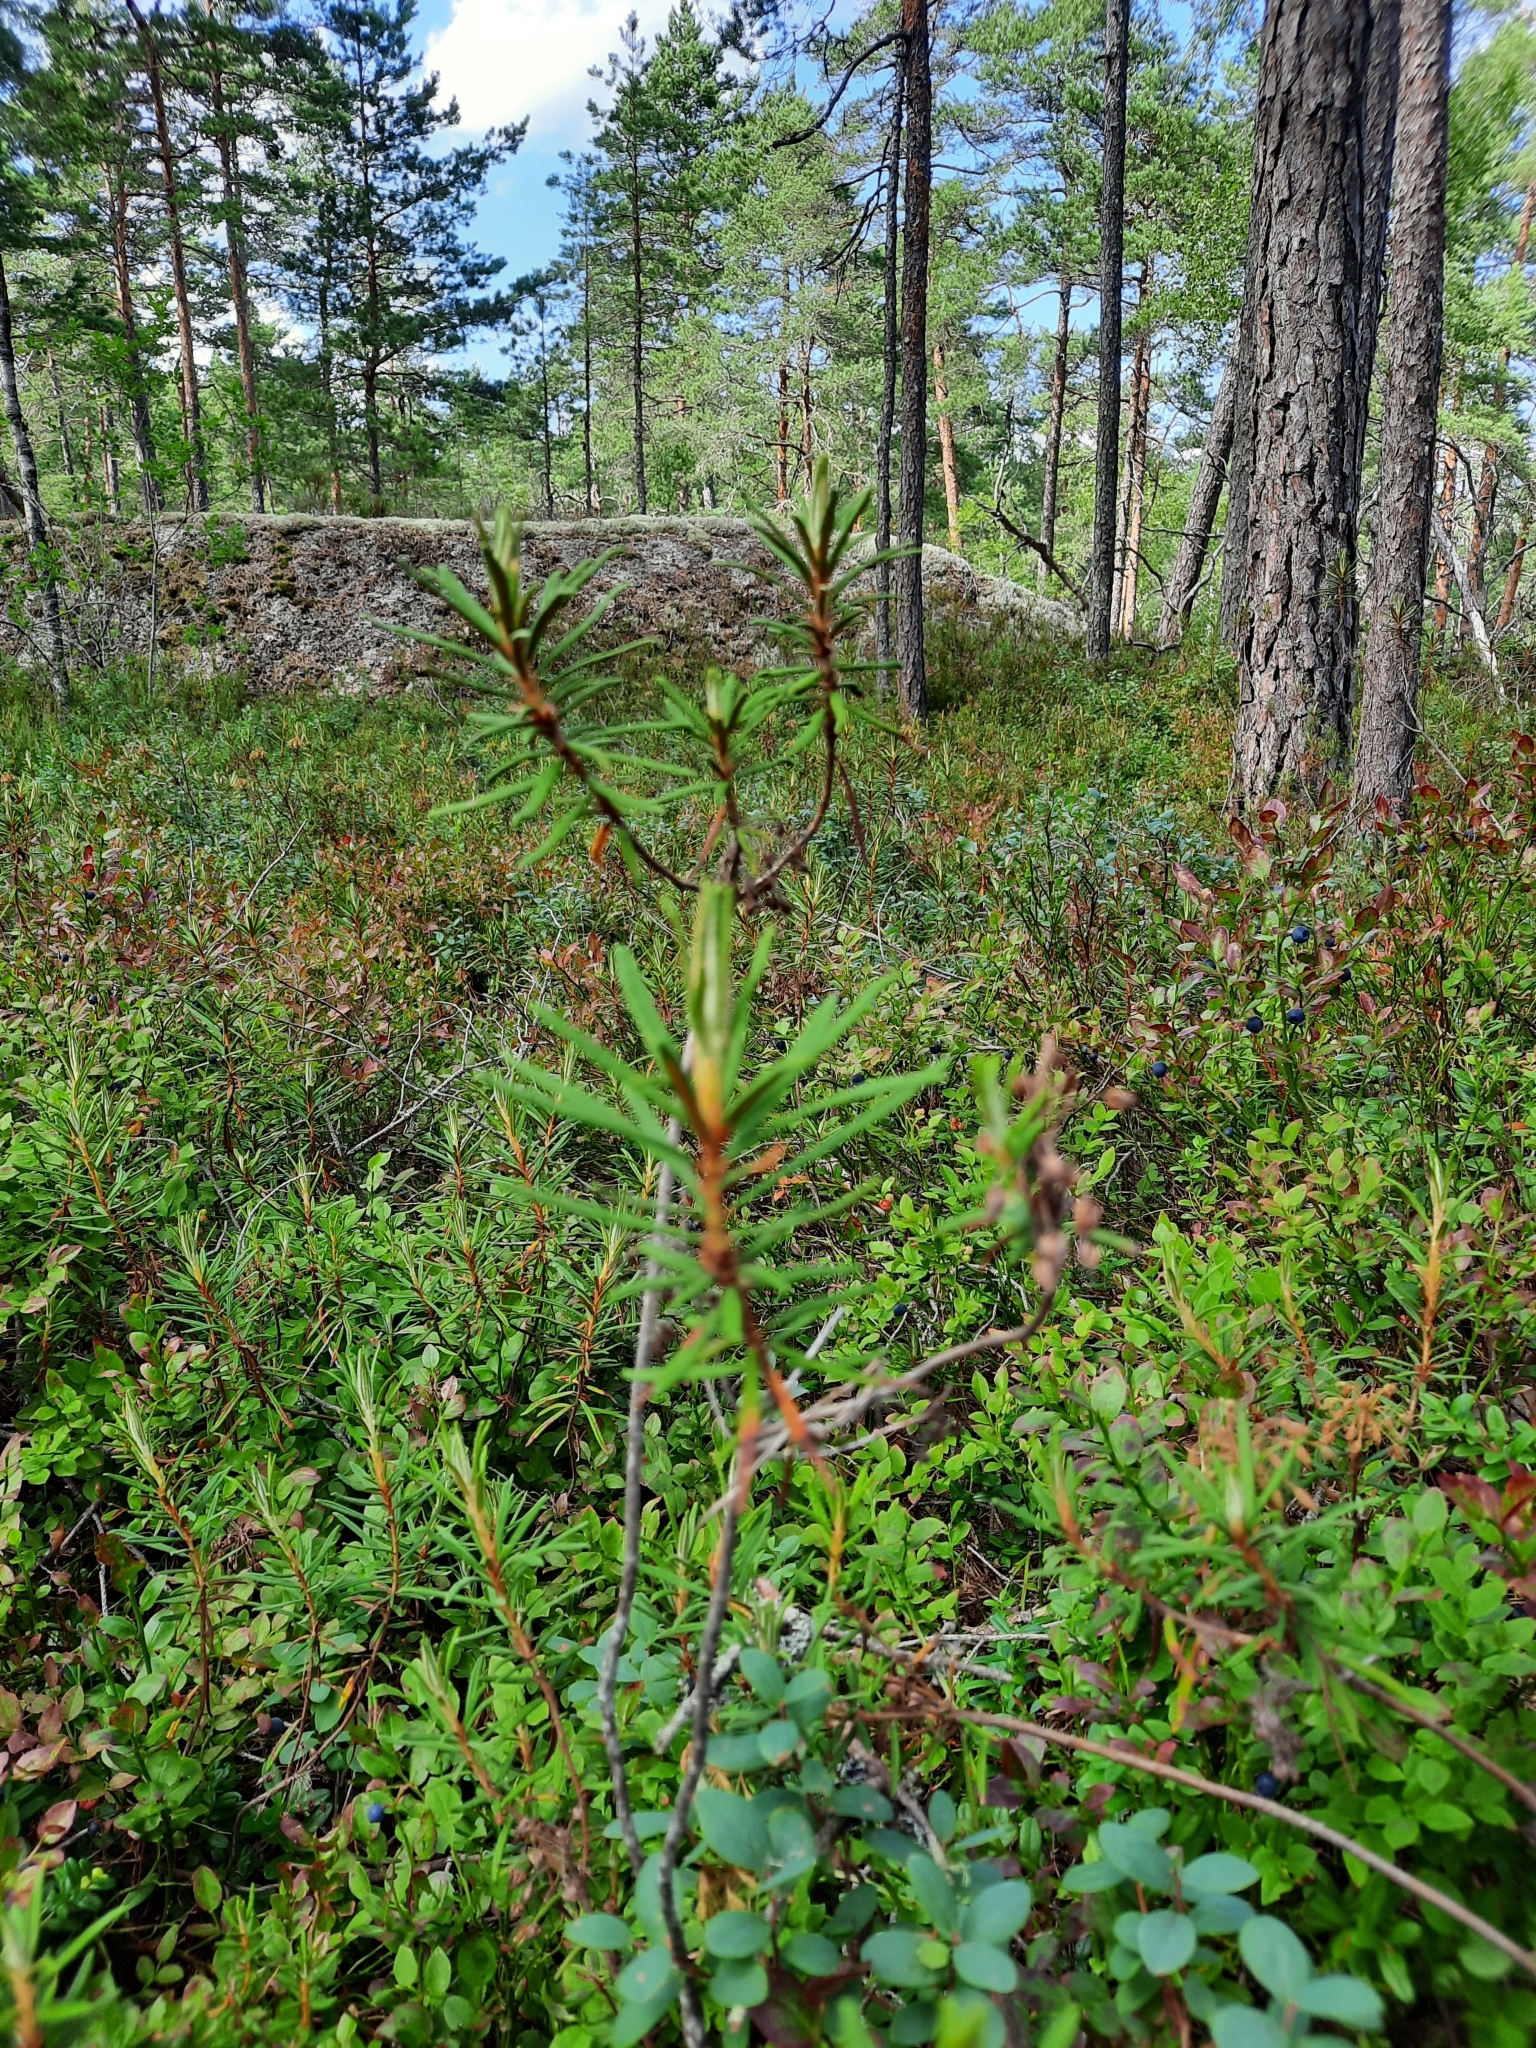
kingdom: Plantae
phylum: Tracheophyta
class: Magnoliopsida
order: Ericales
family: Ericaceae
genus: Rhododendron
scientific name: Rhododendron tomentosum
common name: Marsh labrador tea
